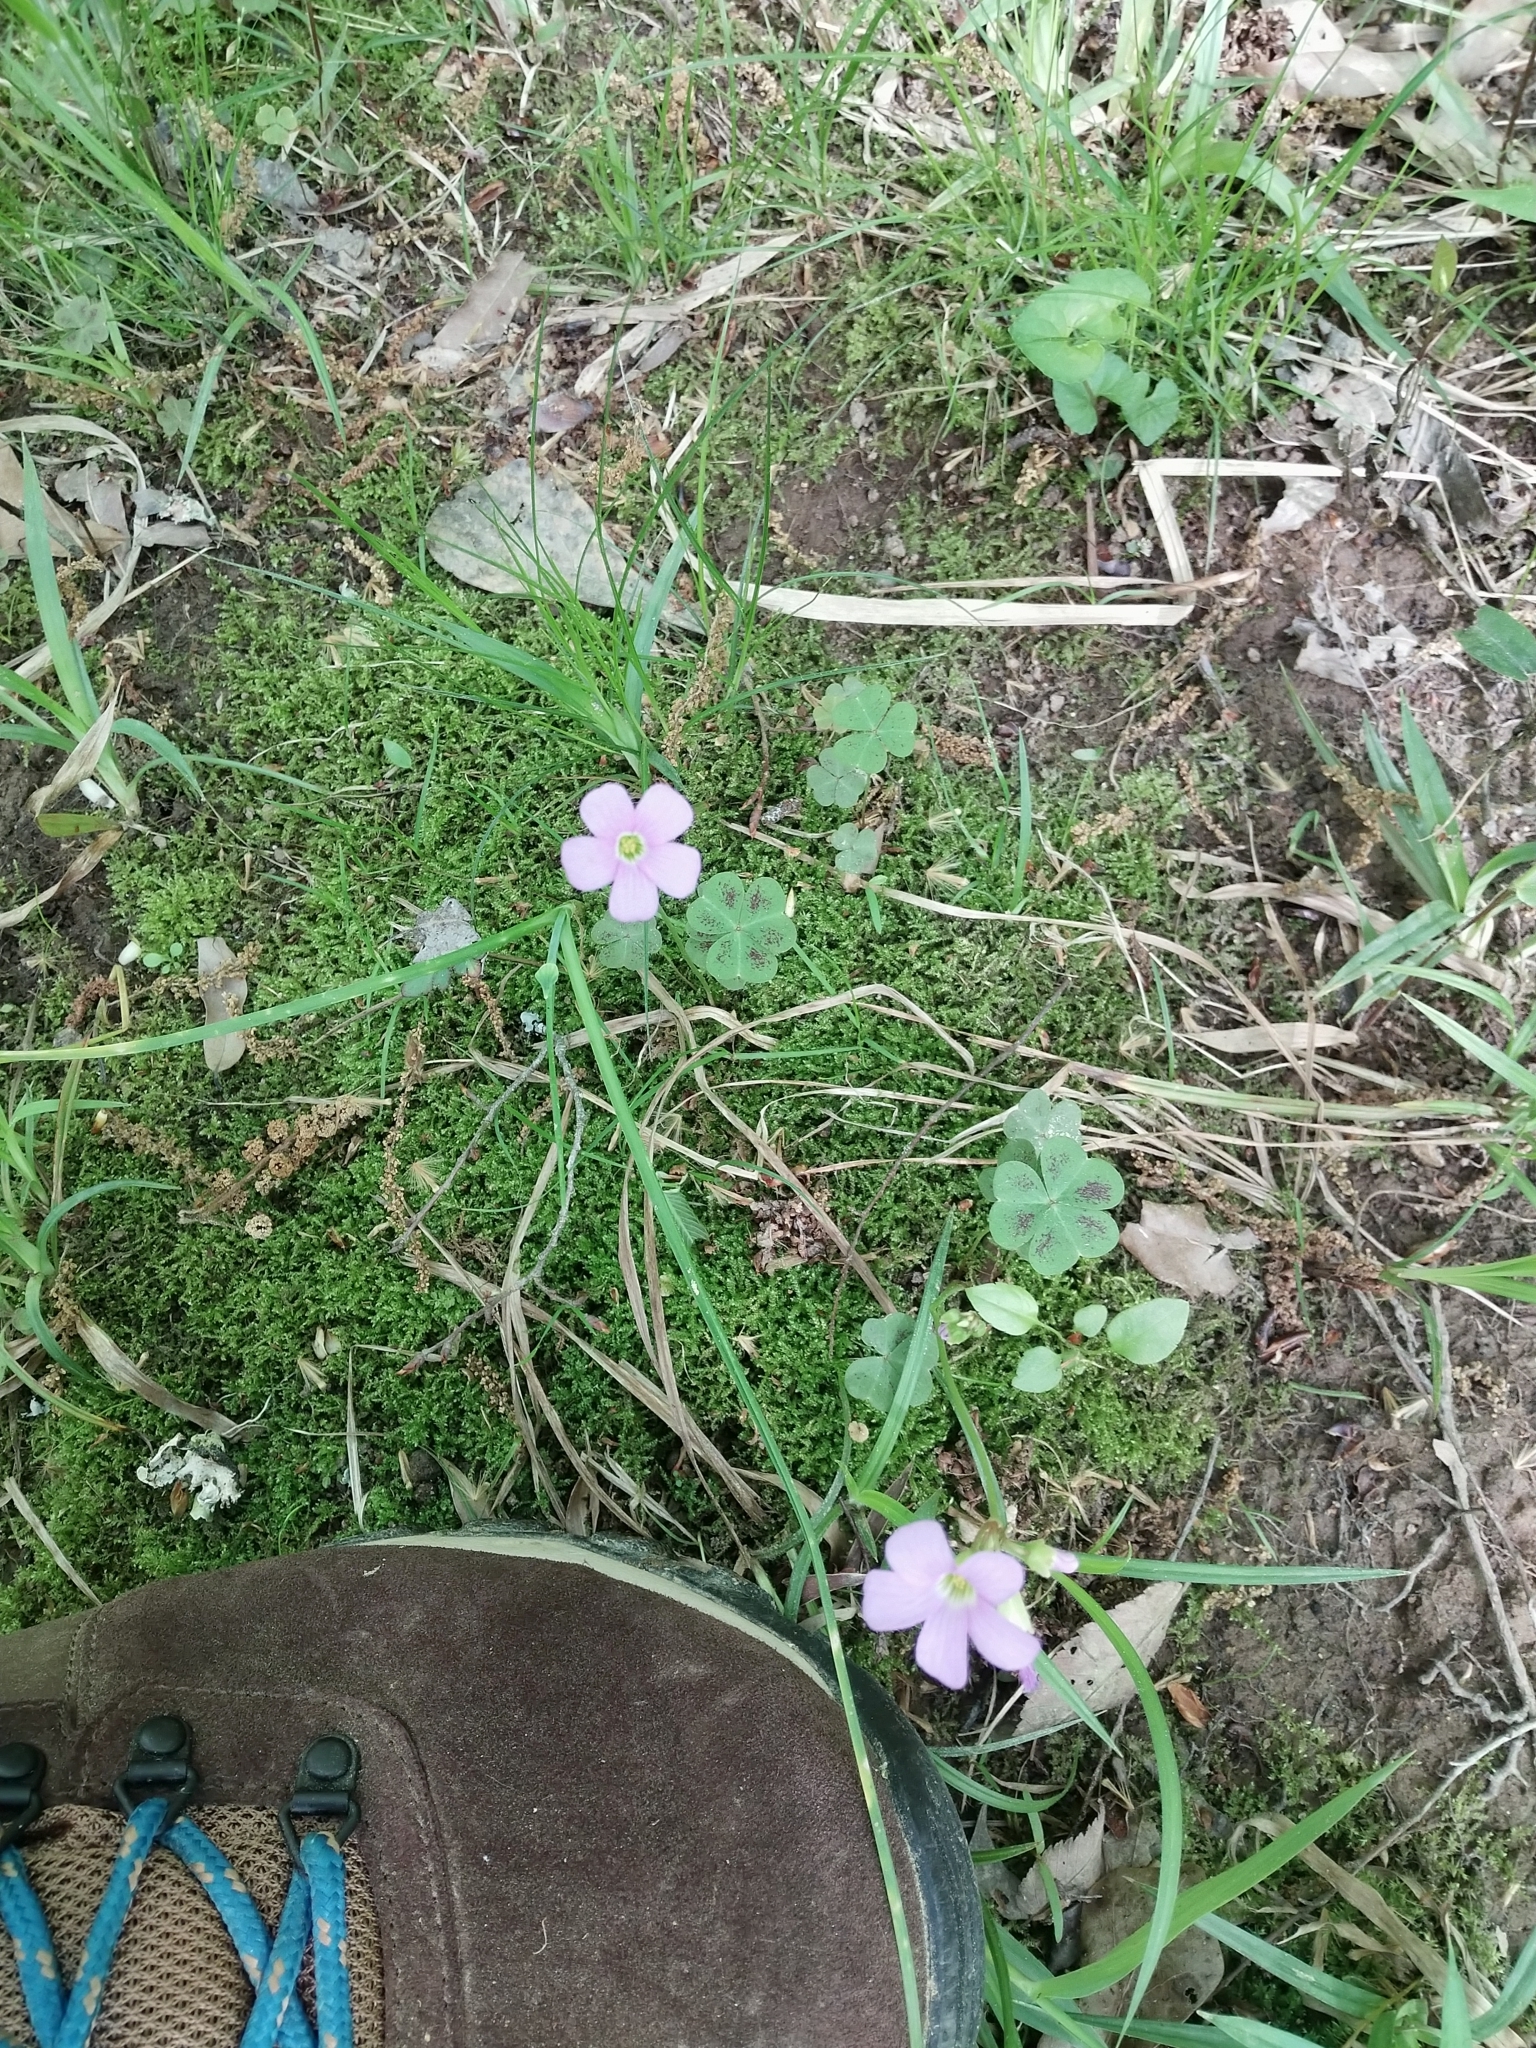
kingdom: Plantae
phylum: Tracheophyta
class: Magnoliopsida
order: Oxalidales
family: Oxalidaceae
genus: Oxalis
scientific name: Oxalis violacea
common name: Violet wood-sorrel
